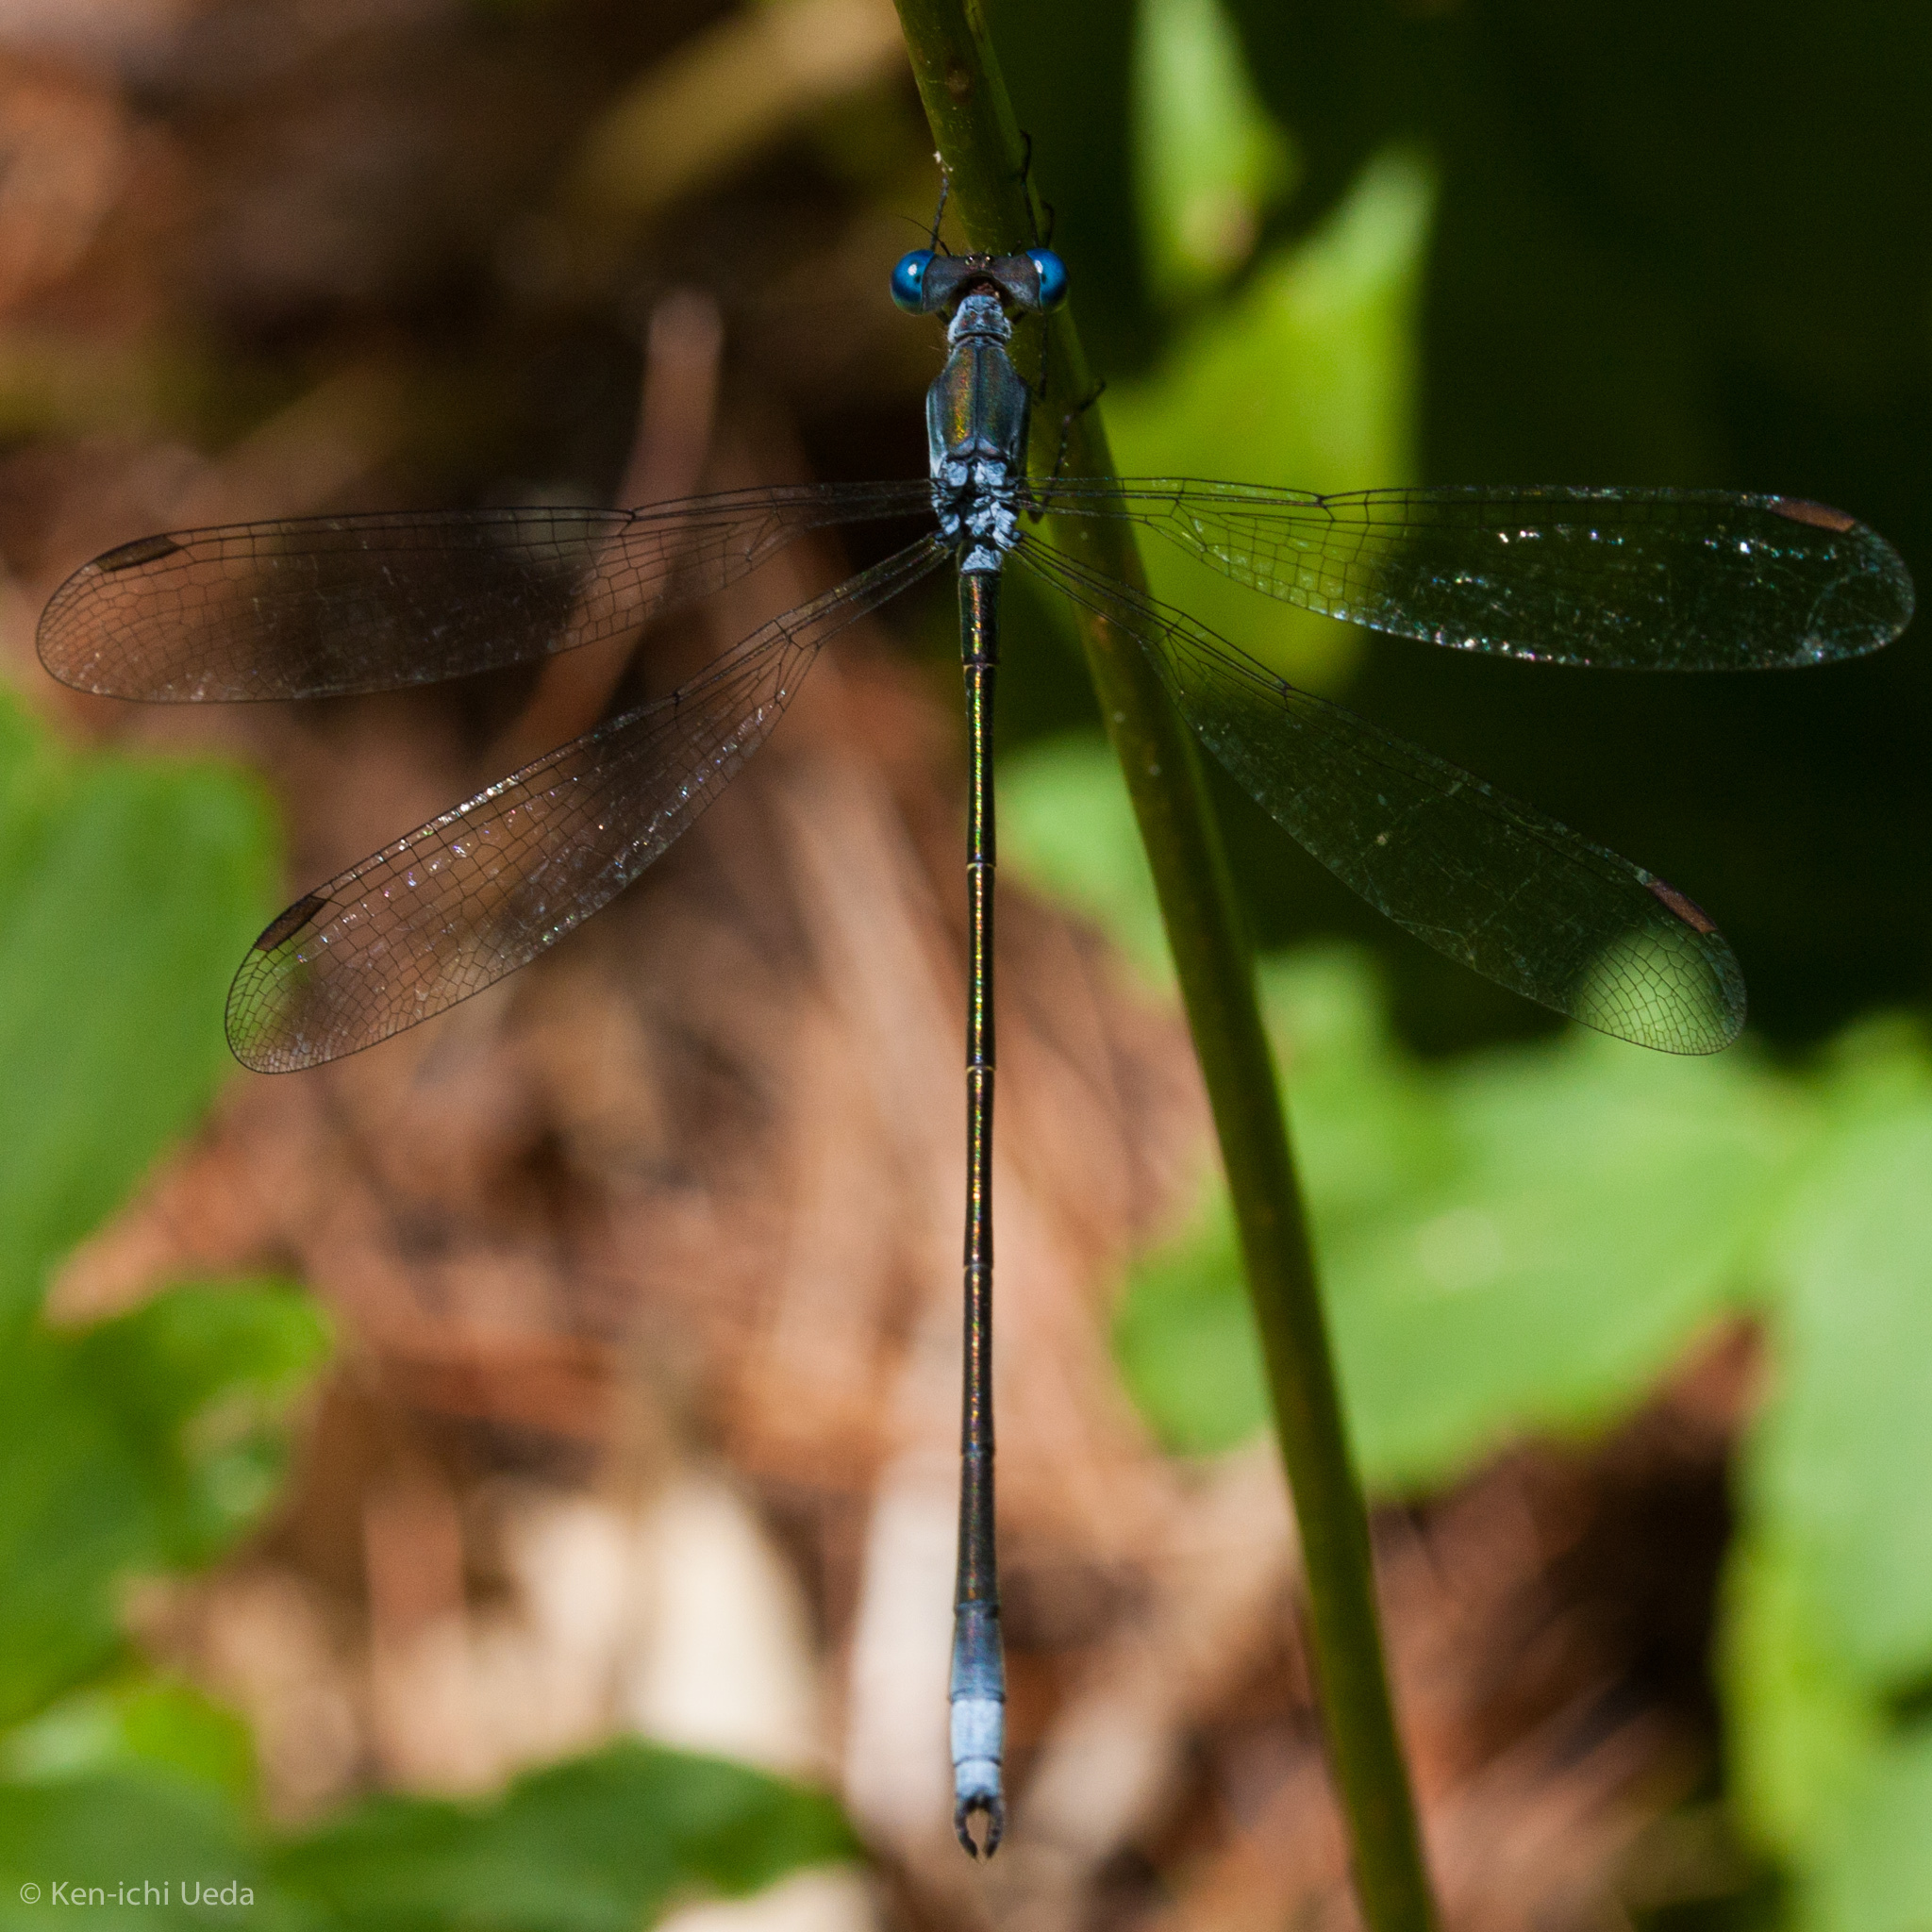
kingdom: Animalia
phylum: Arthropoda
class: Insecta
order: Odonata
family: Lestidae
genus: Lestes
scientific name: Lestes vigilax
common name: Swamp spreadwing
